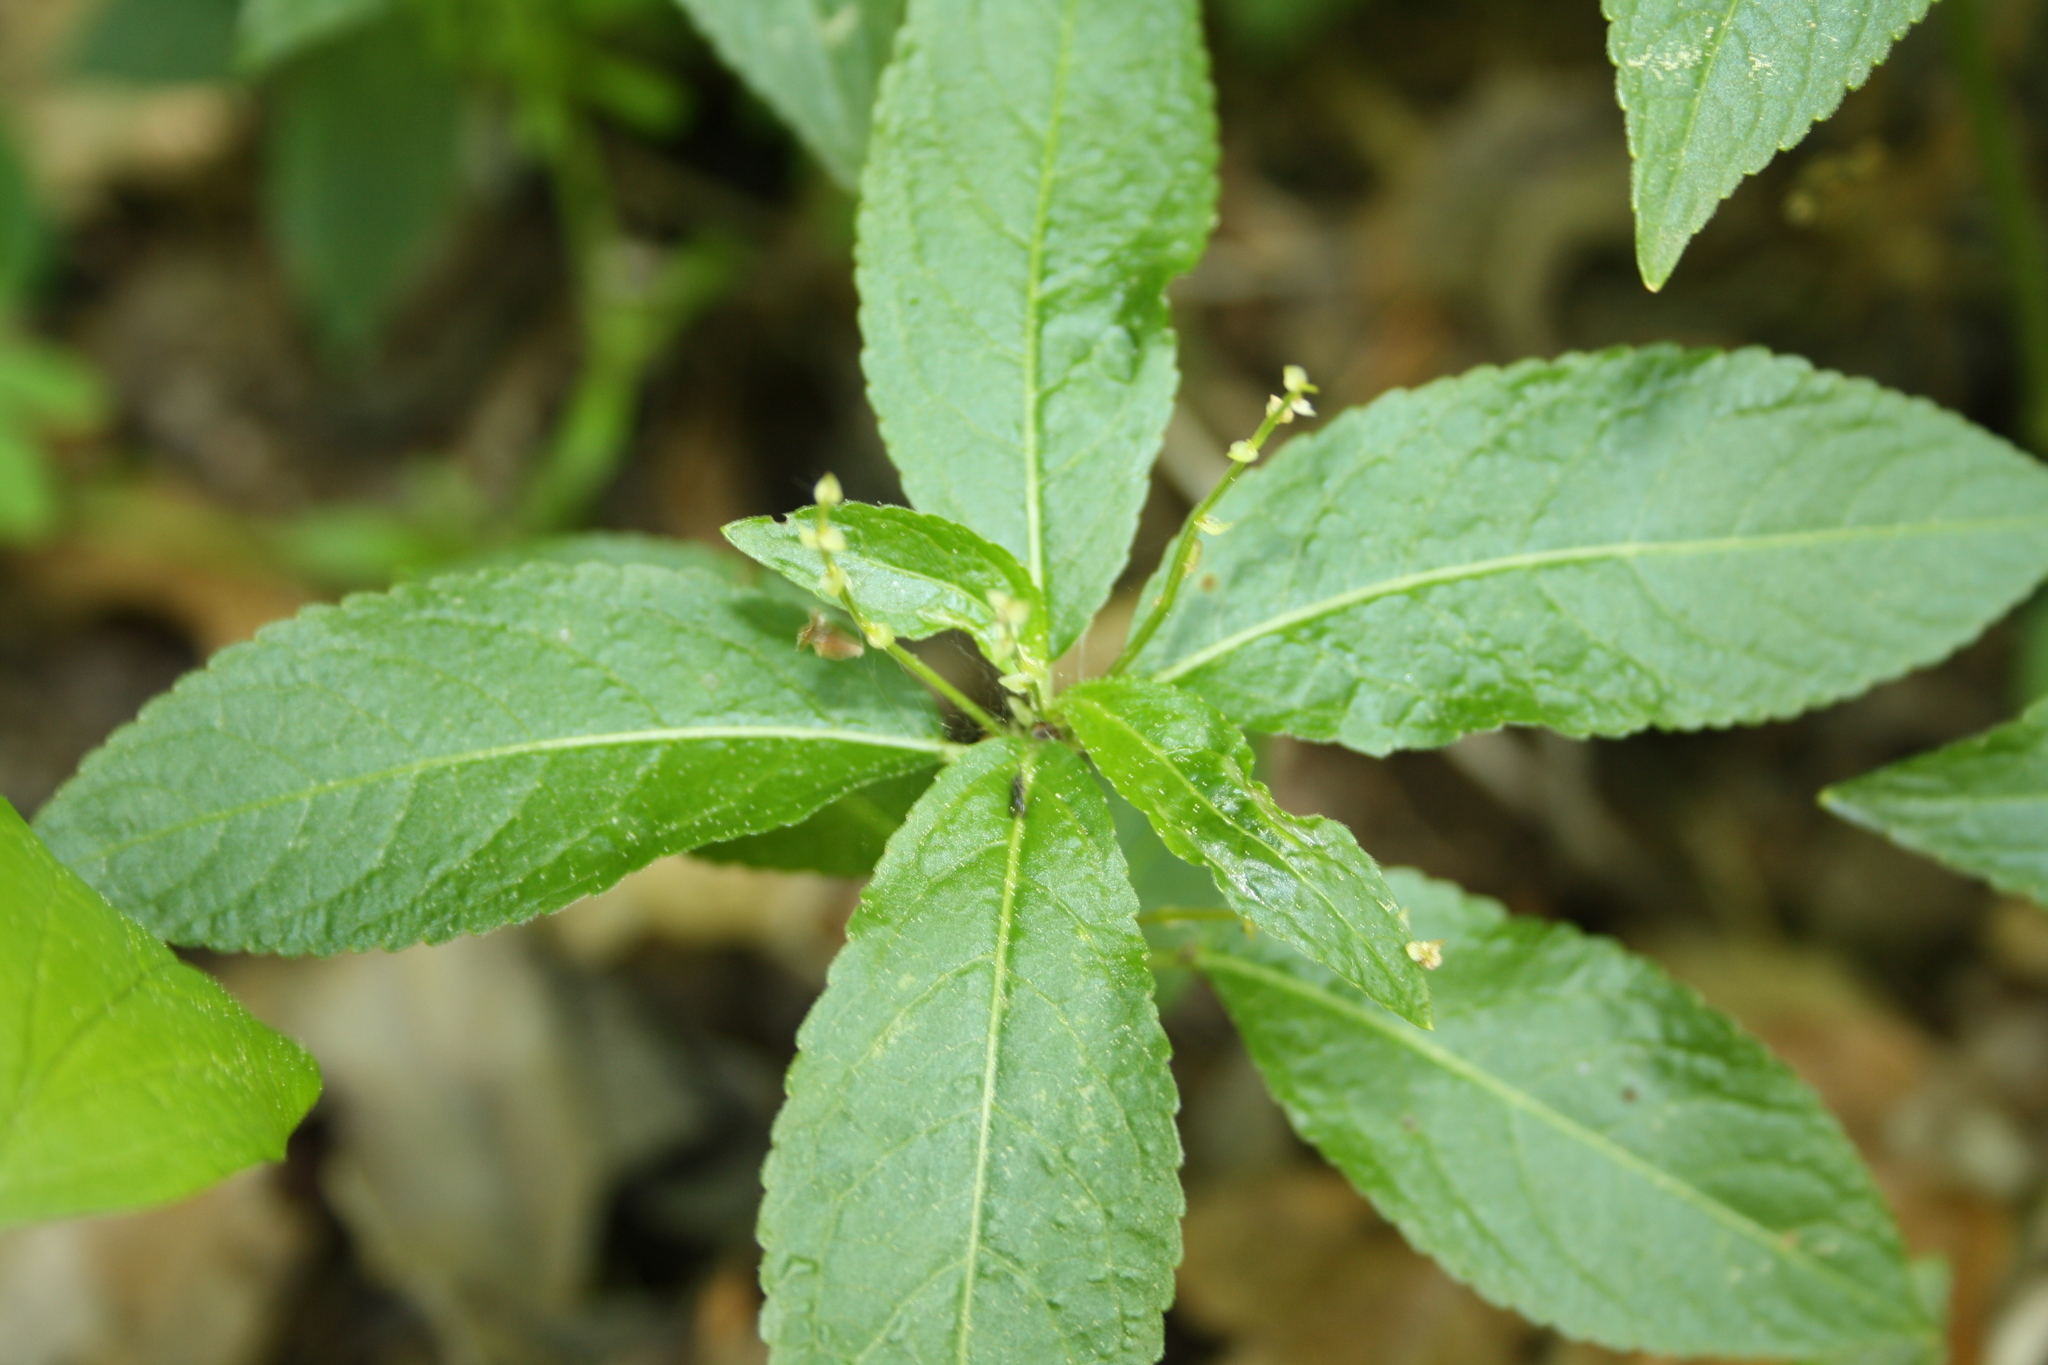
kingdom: Plantae
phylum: Tracheophyta
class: Magnoliopsida
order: Malpighiales
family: Euphorbiaceae
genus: Mercurialis
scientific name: Mercurialis perennis
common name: Dog mercury
